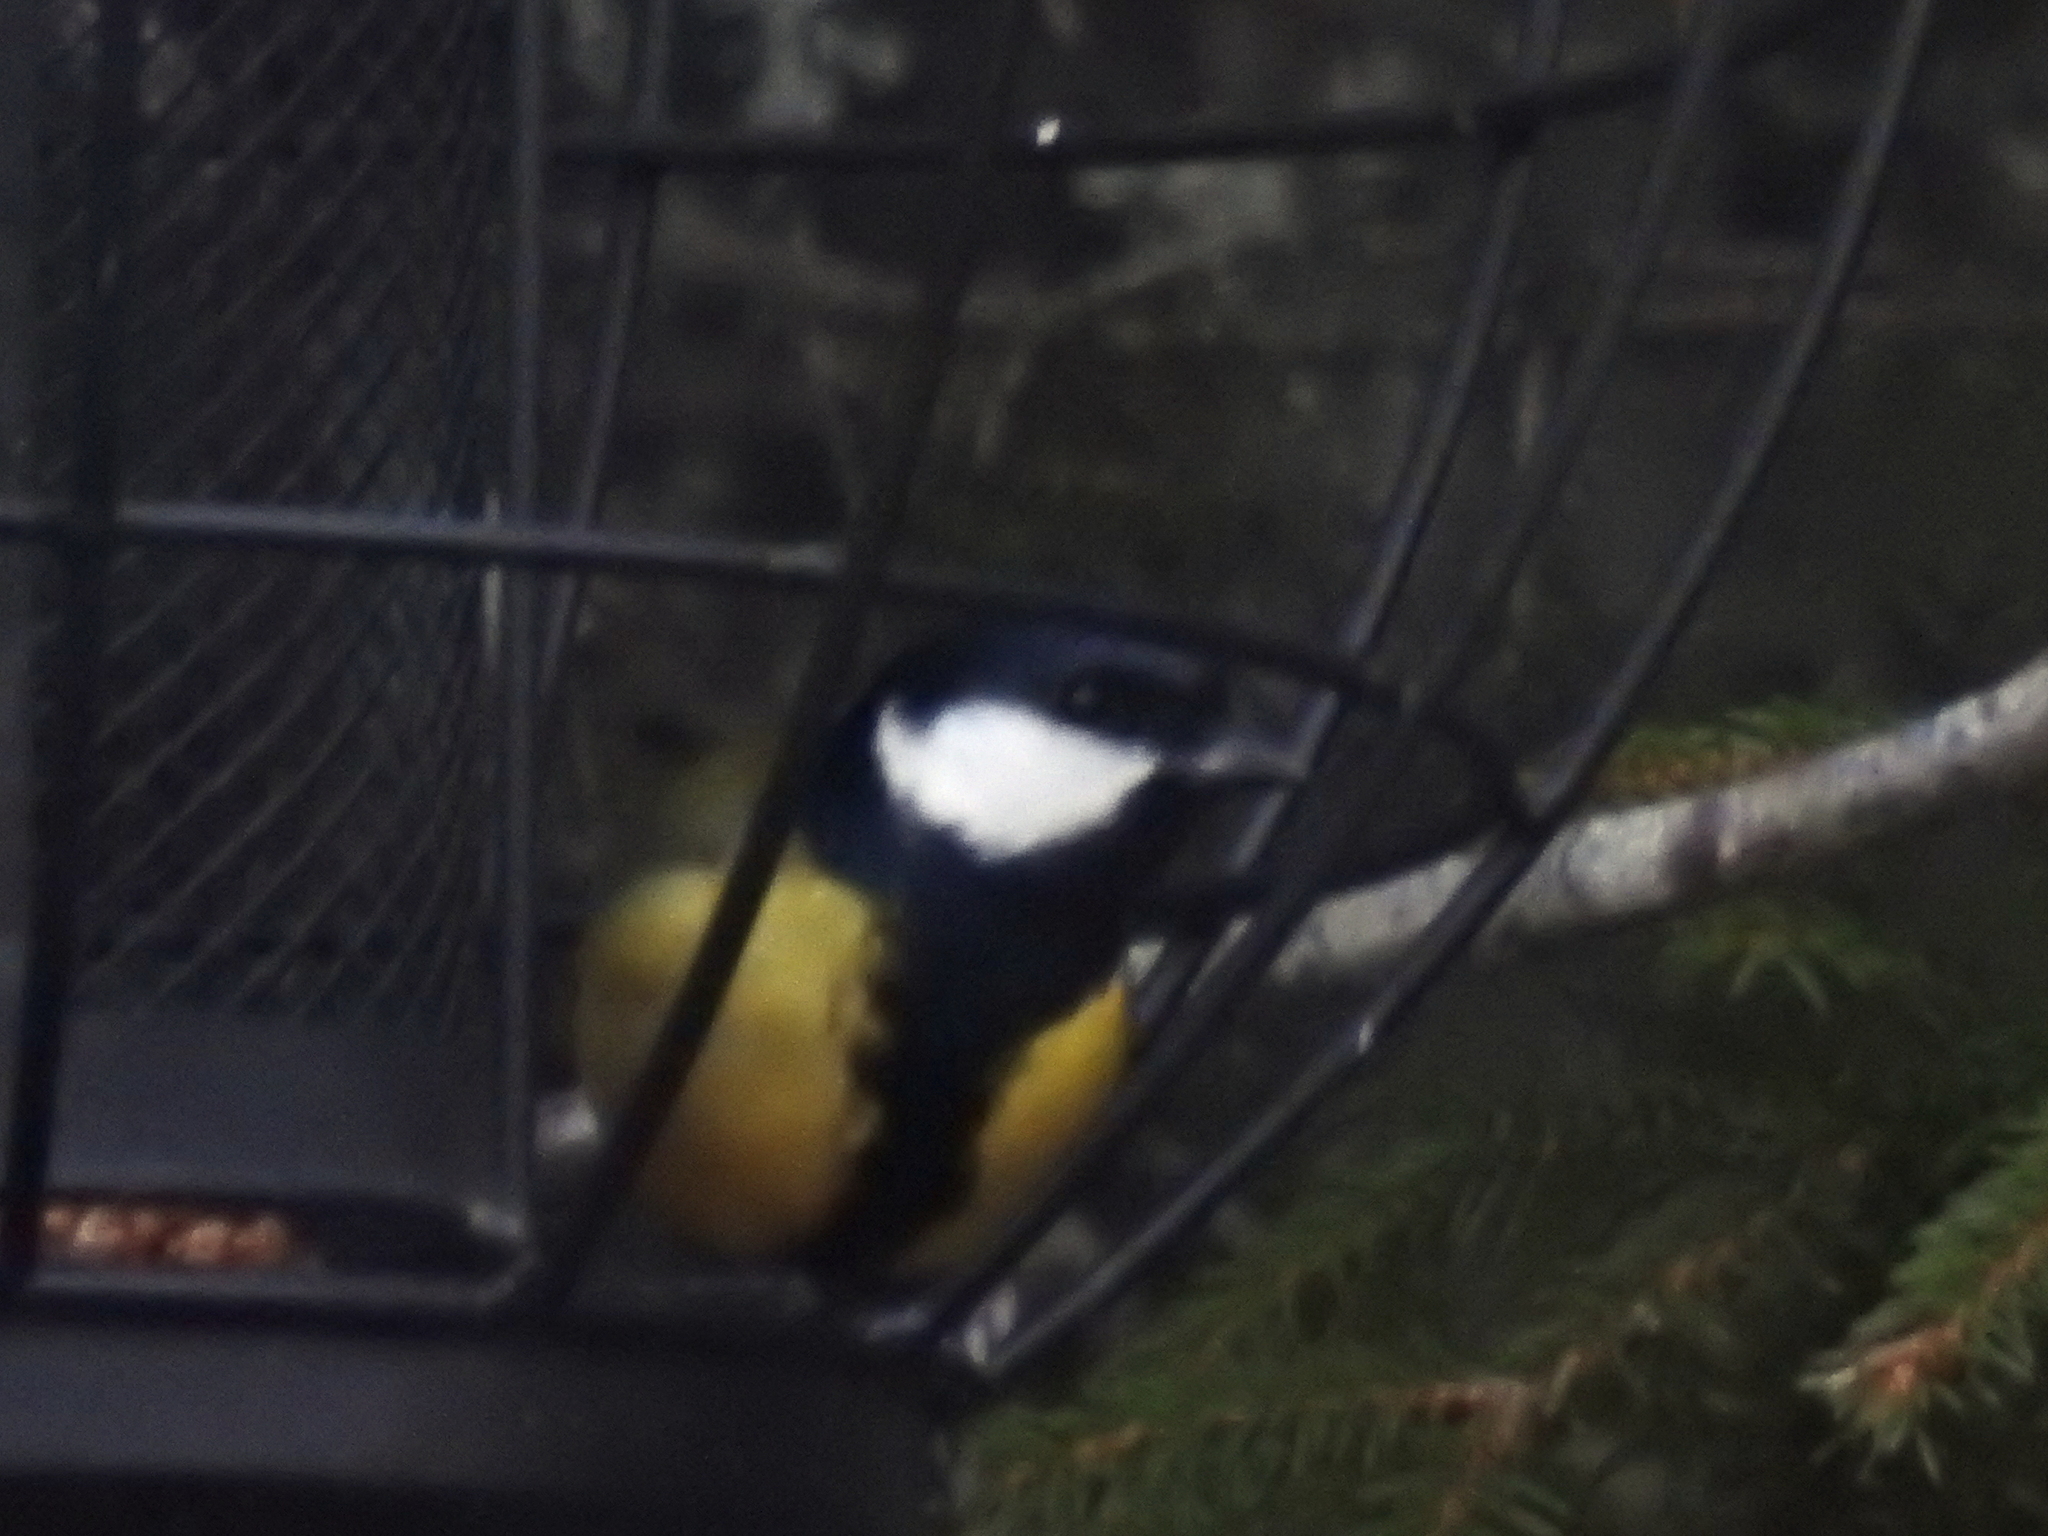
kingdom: Animalia
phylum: Chordata
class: Aves
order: Passeriformes
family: Paridae
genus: Parus
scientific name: Parus major
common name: Great tit
